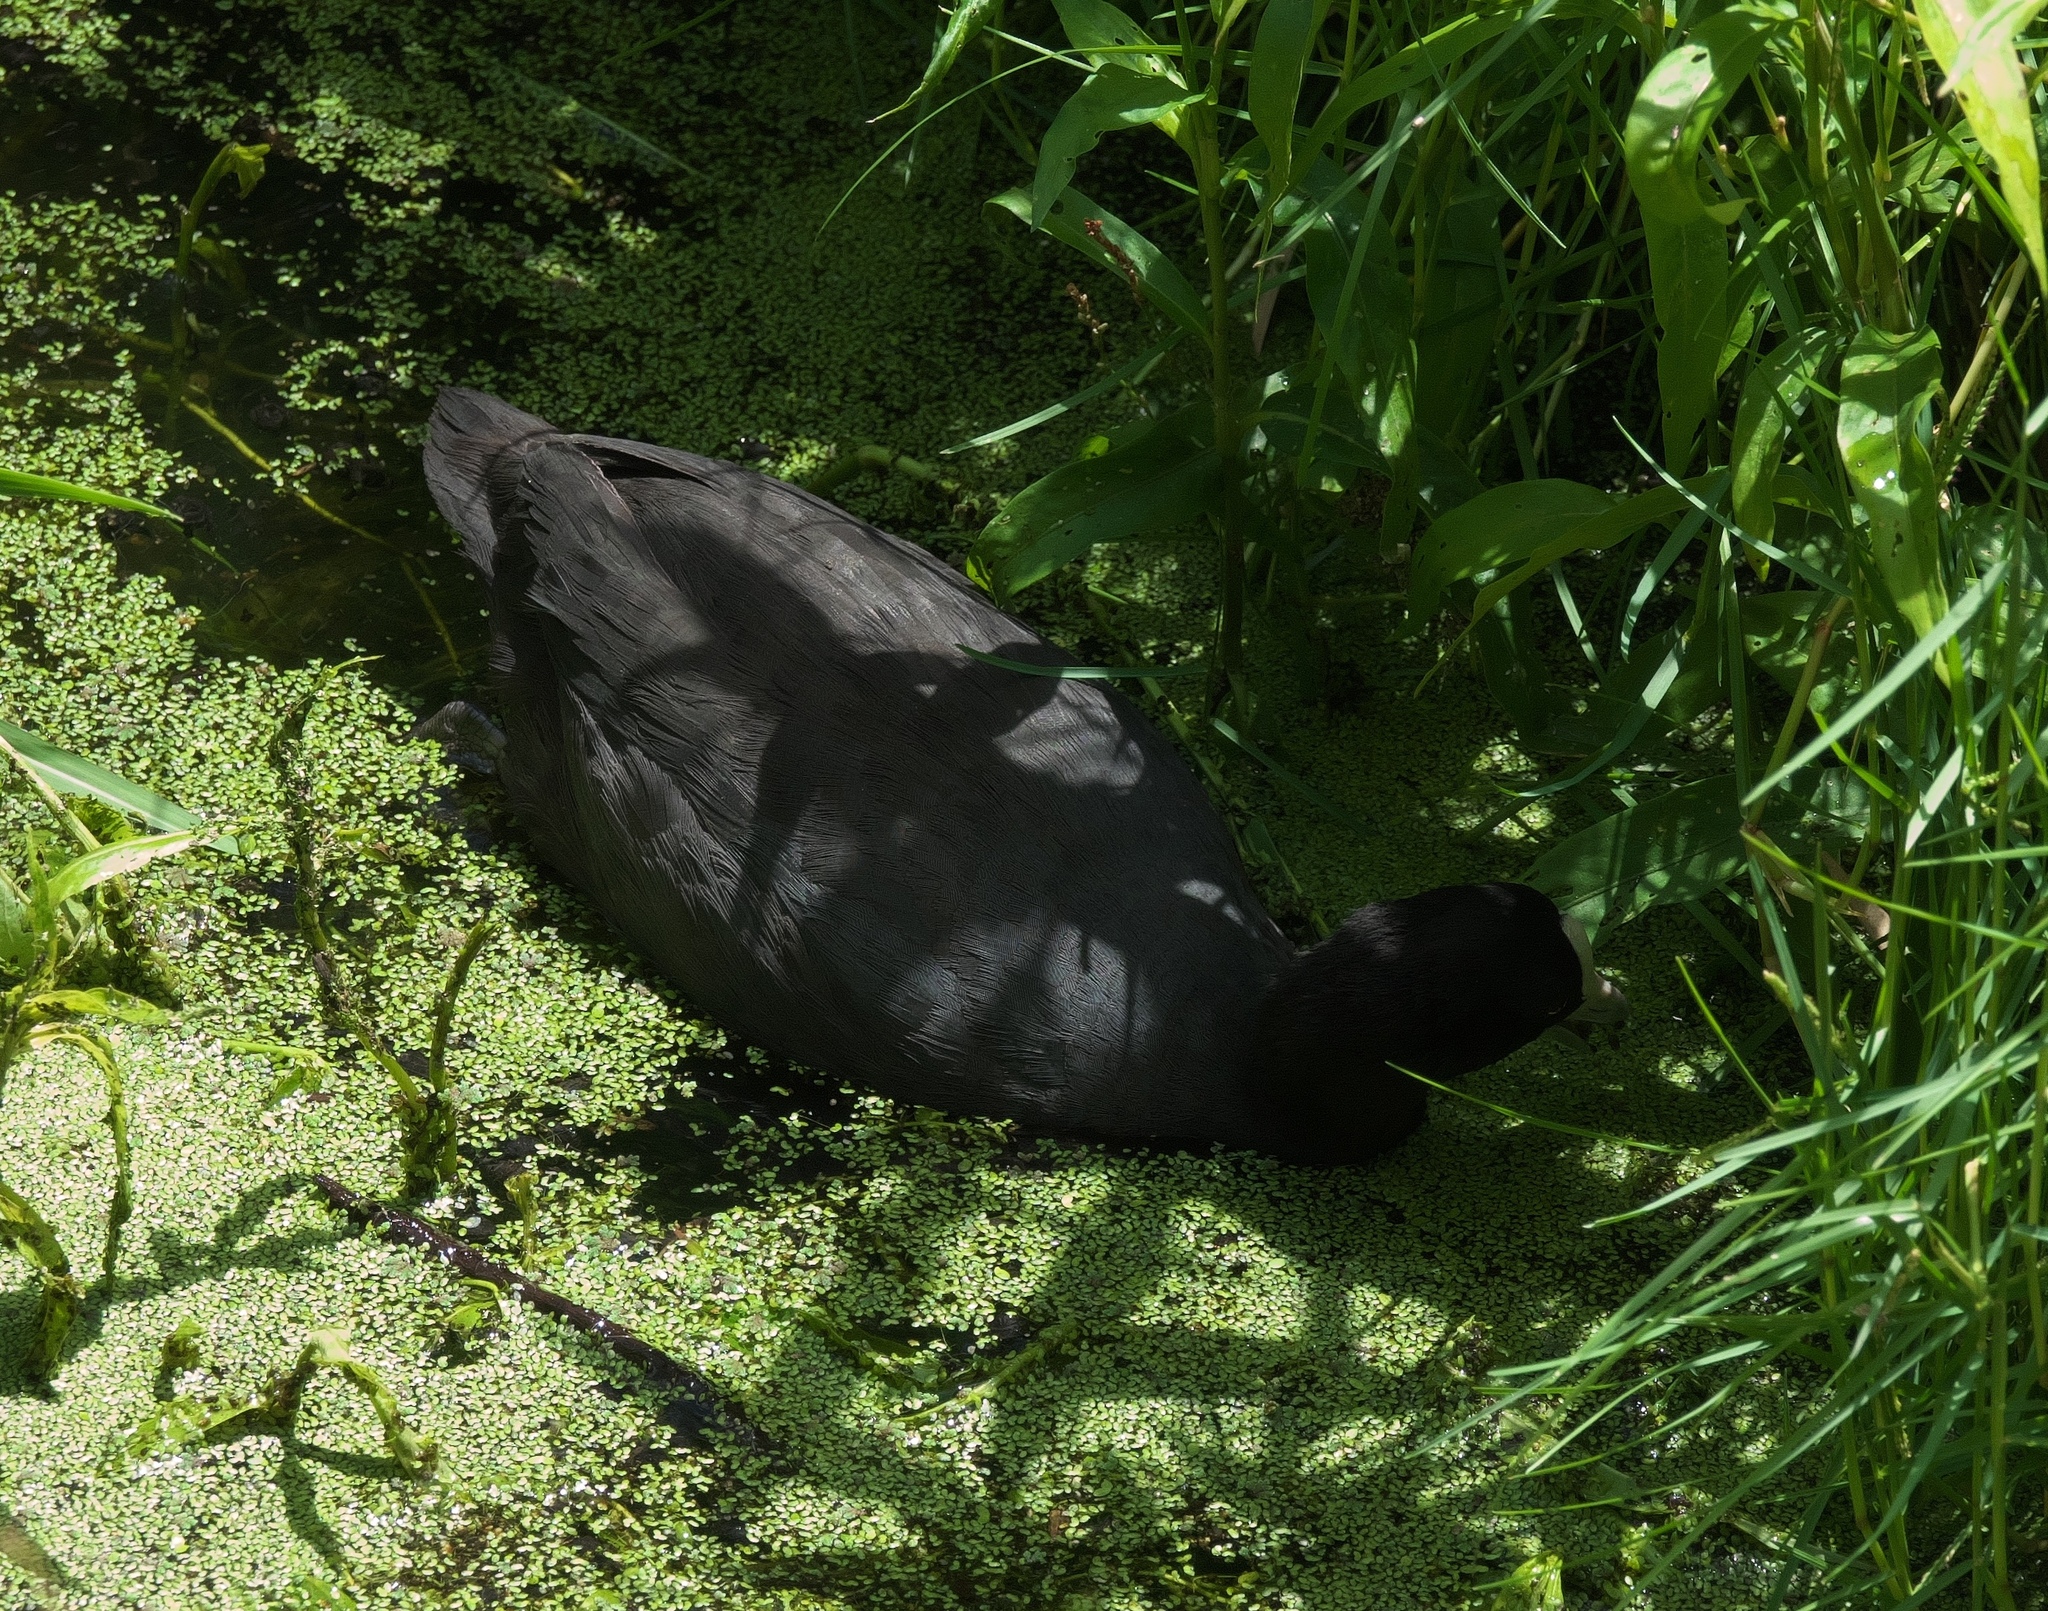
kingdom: Animalia
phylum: Chordata
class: Aves
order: Gruiformes
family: Rallidae
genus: Fulica
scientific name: Fulica atra
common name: Eurasian coot
